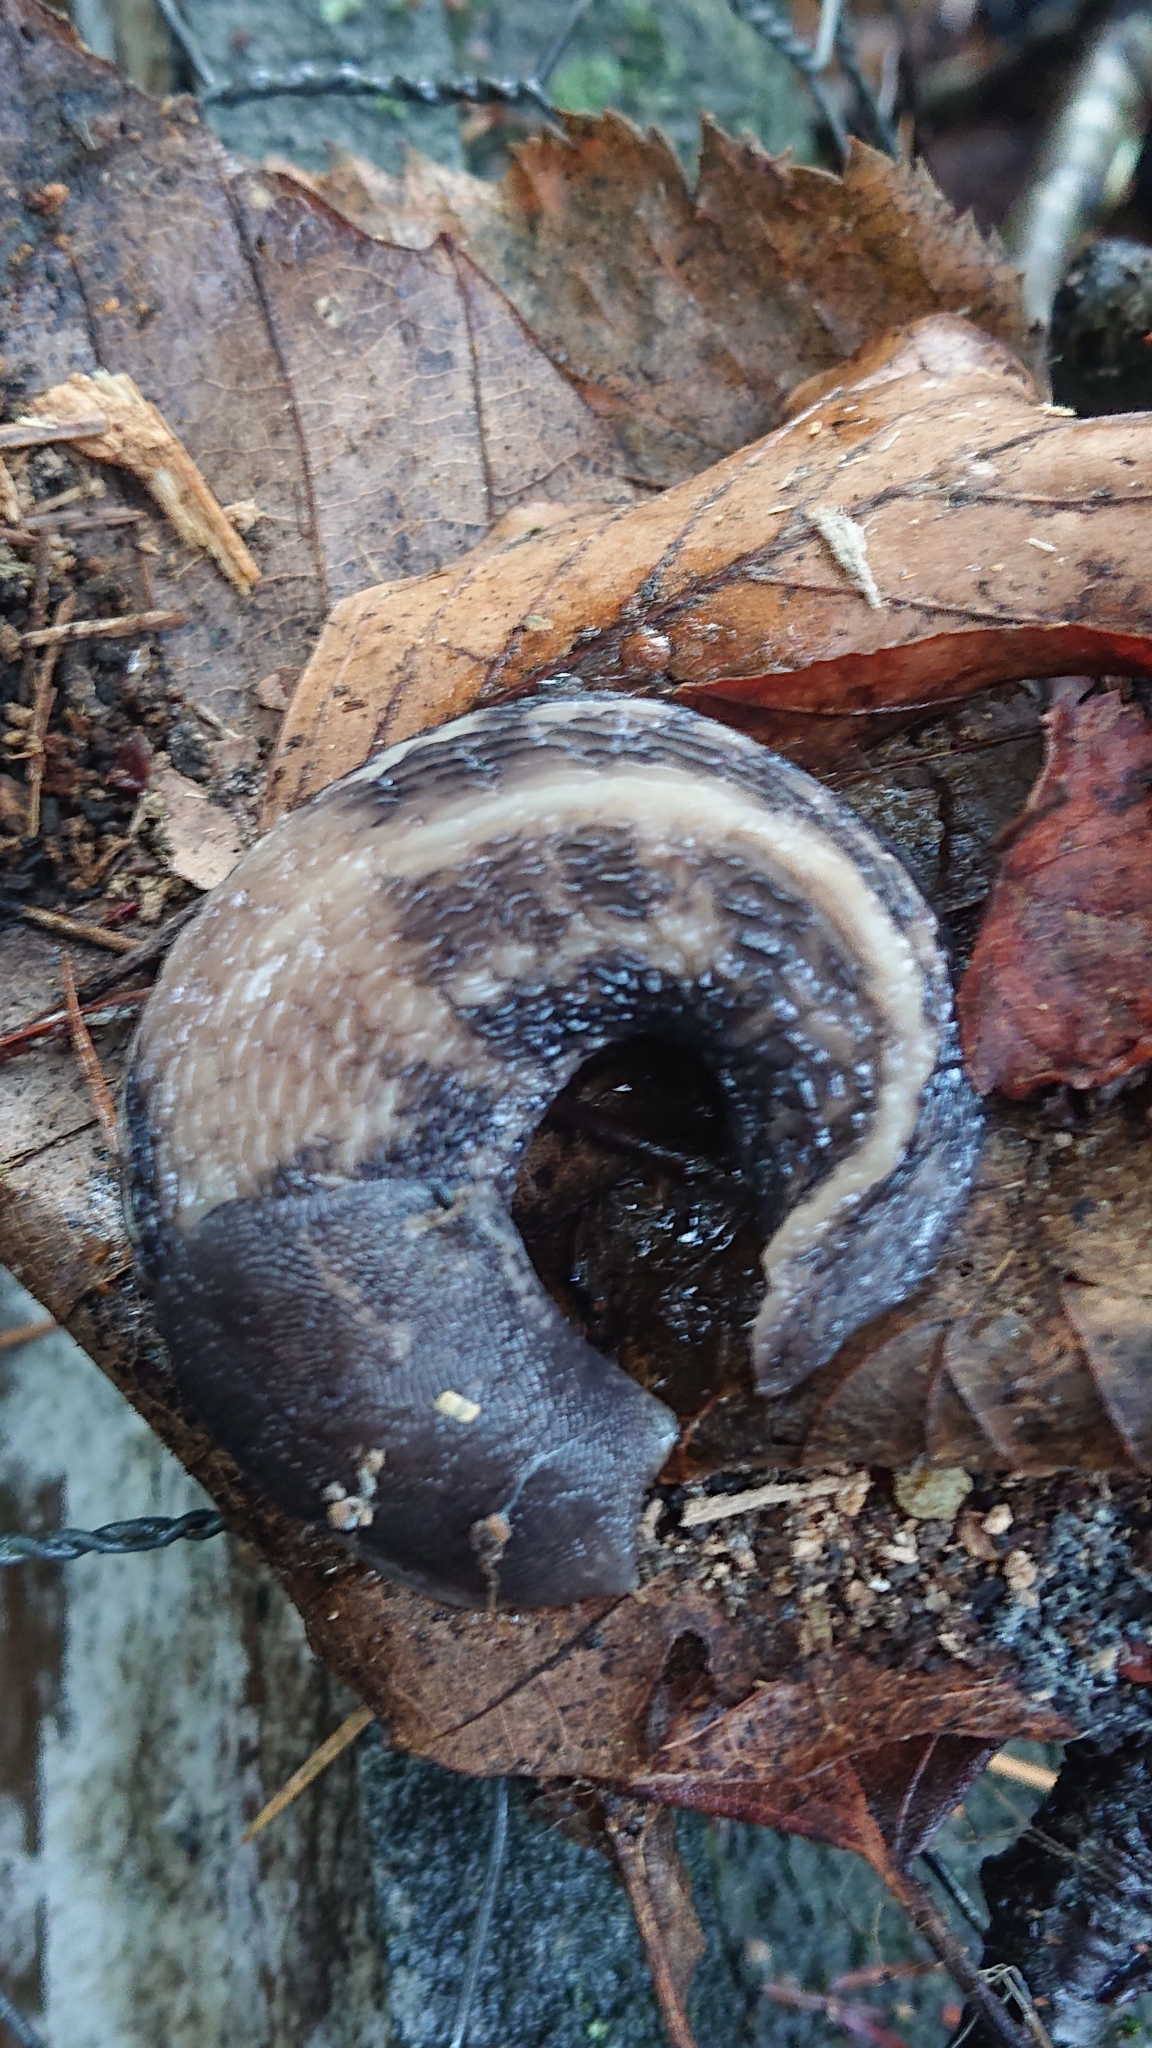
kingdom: Animalia
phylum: Mollusca
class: Gastropoda
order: Stylommatophora
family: Limacidae
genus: Limax
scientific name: Limax cinereoniger
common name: Ash-black slug
